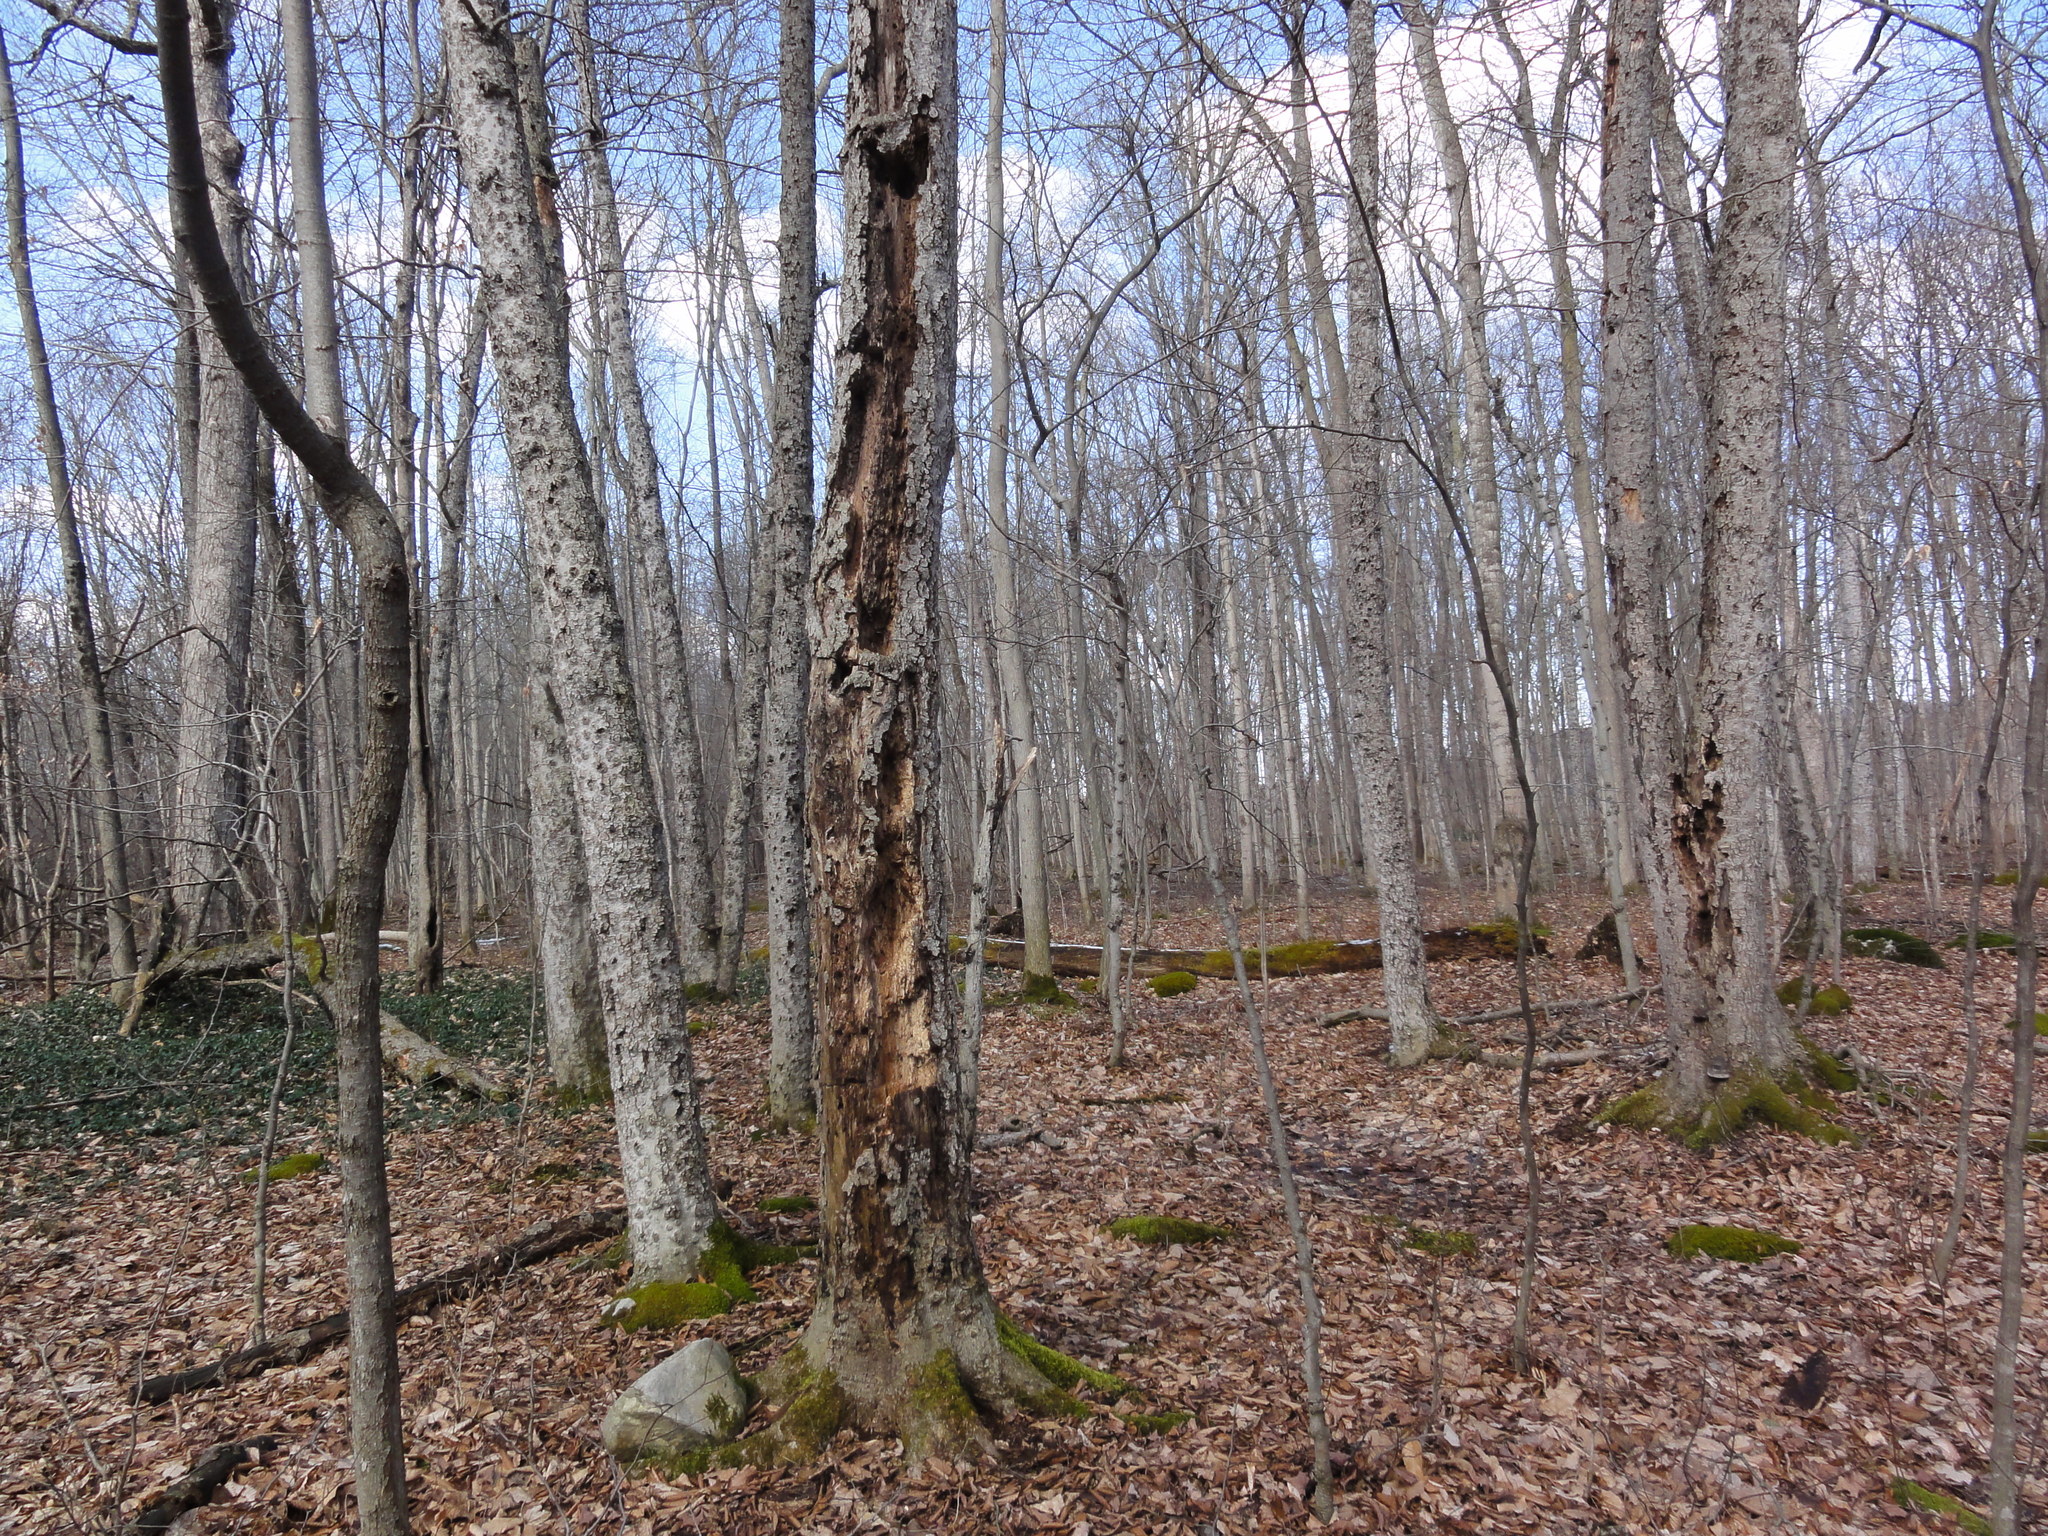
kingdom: Plantae
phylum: Tracheophyta
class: Magnoliopsida
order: Fagales
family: Fagaceae
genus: Fagus
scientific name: Fagus grandifolia
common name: American beech
